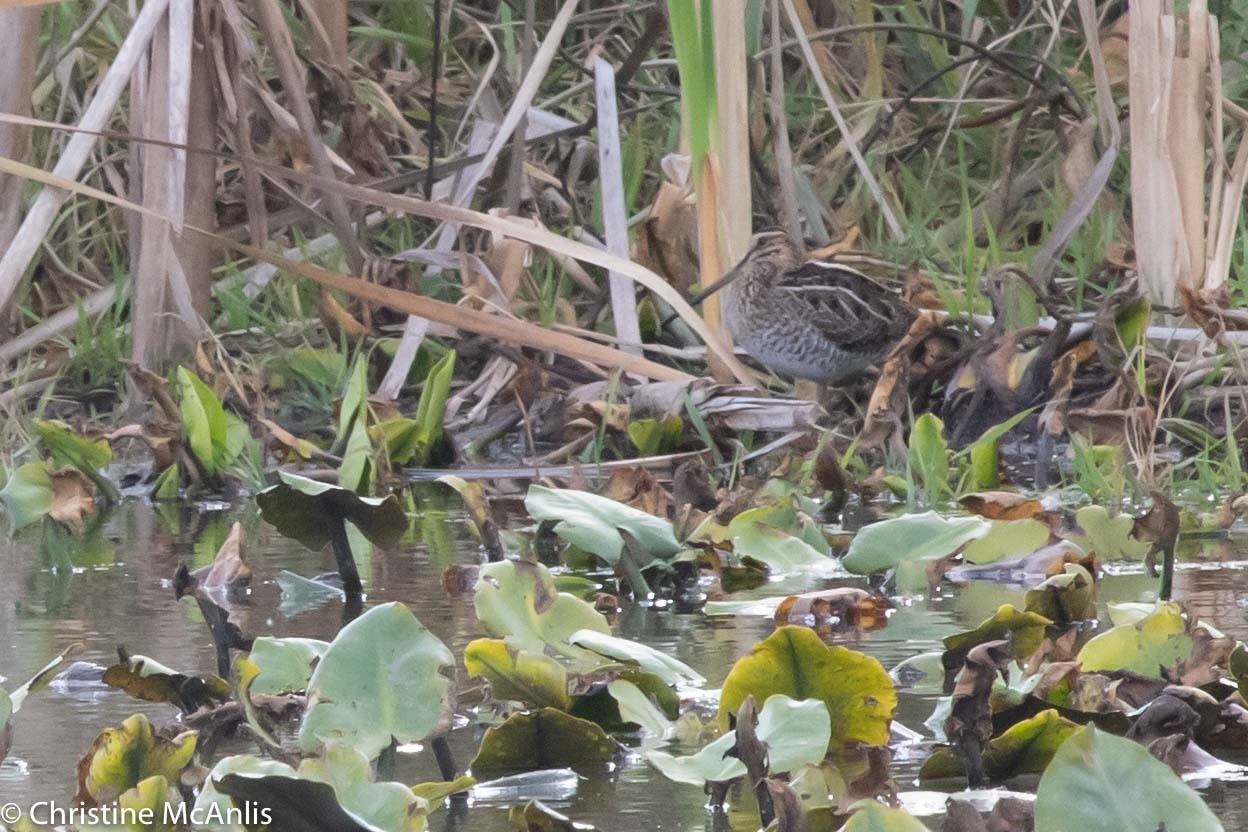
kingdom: Animalia
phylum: Chordata
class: Aves
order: Charadriiformes
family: Scolopacidae
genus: Gallinago
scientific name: Gallinago delicata
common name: Wilson's snipe
